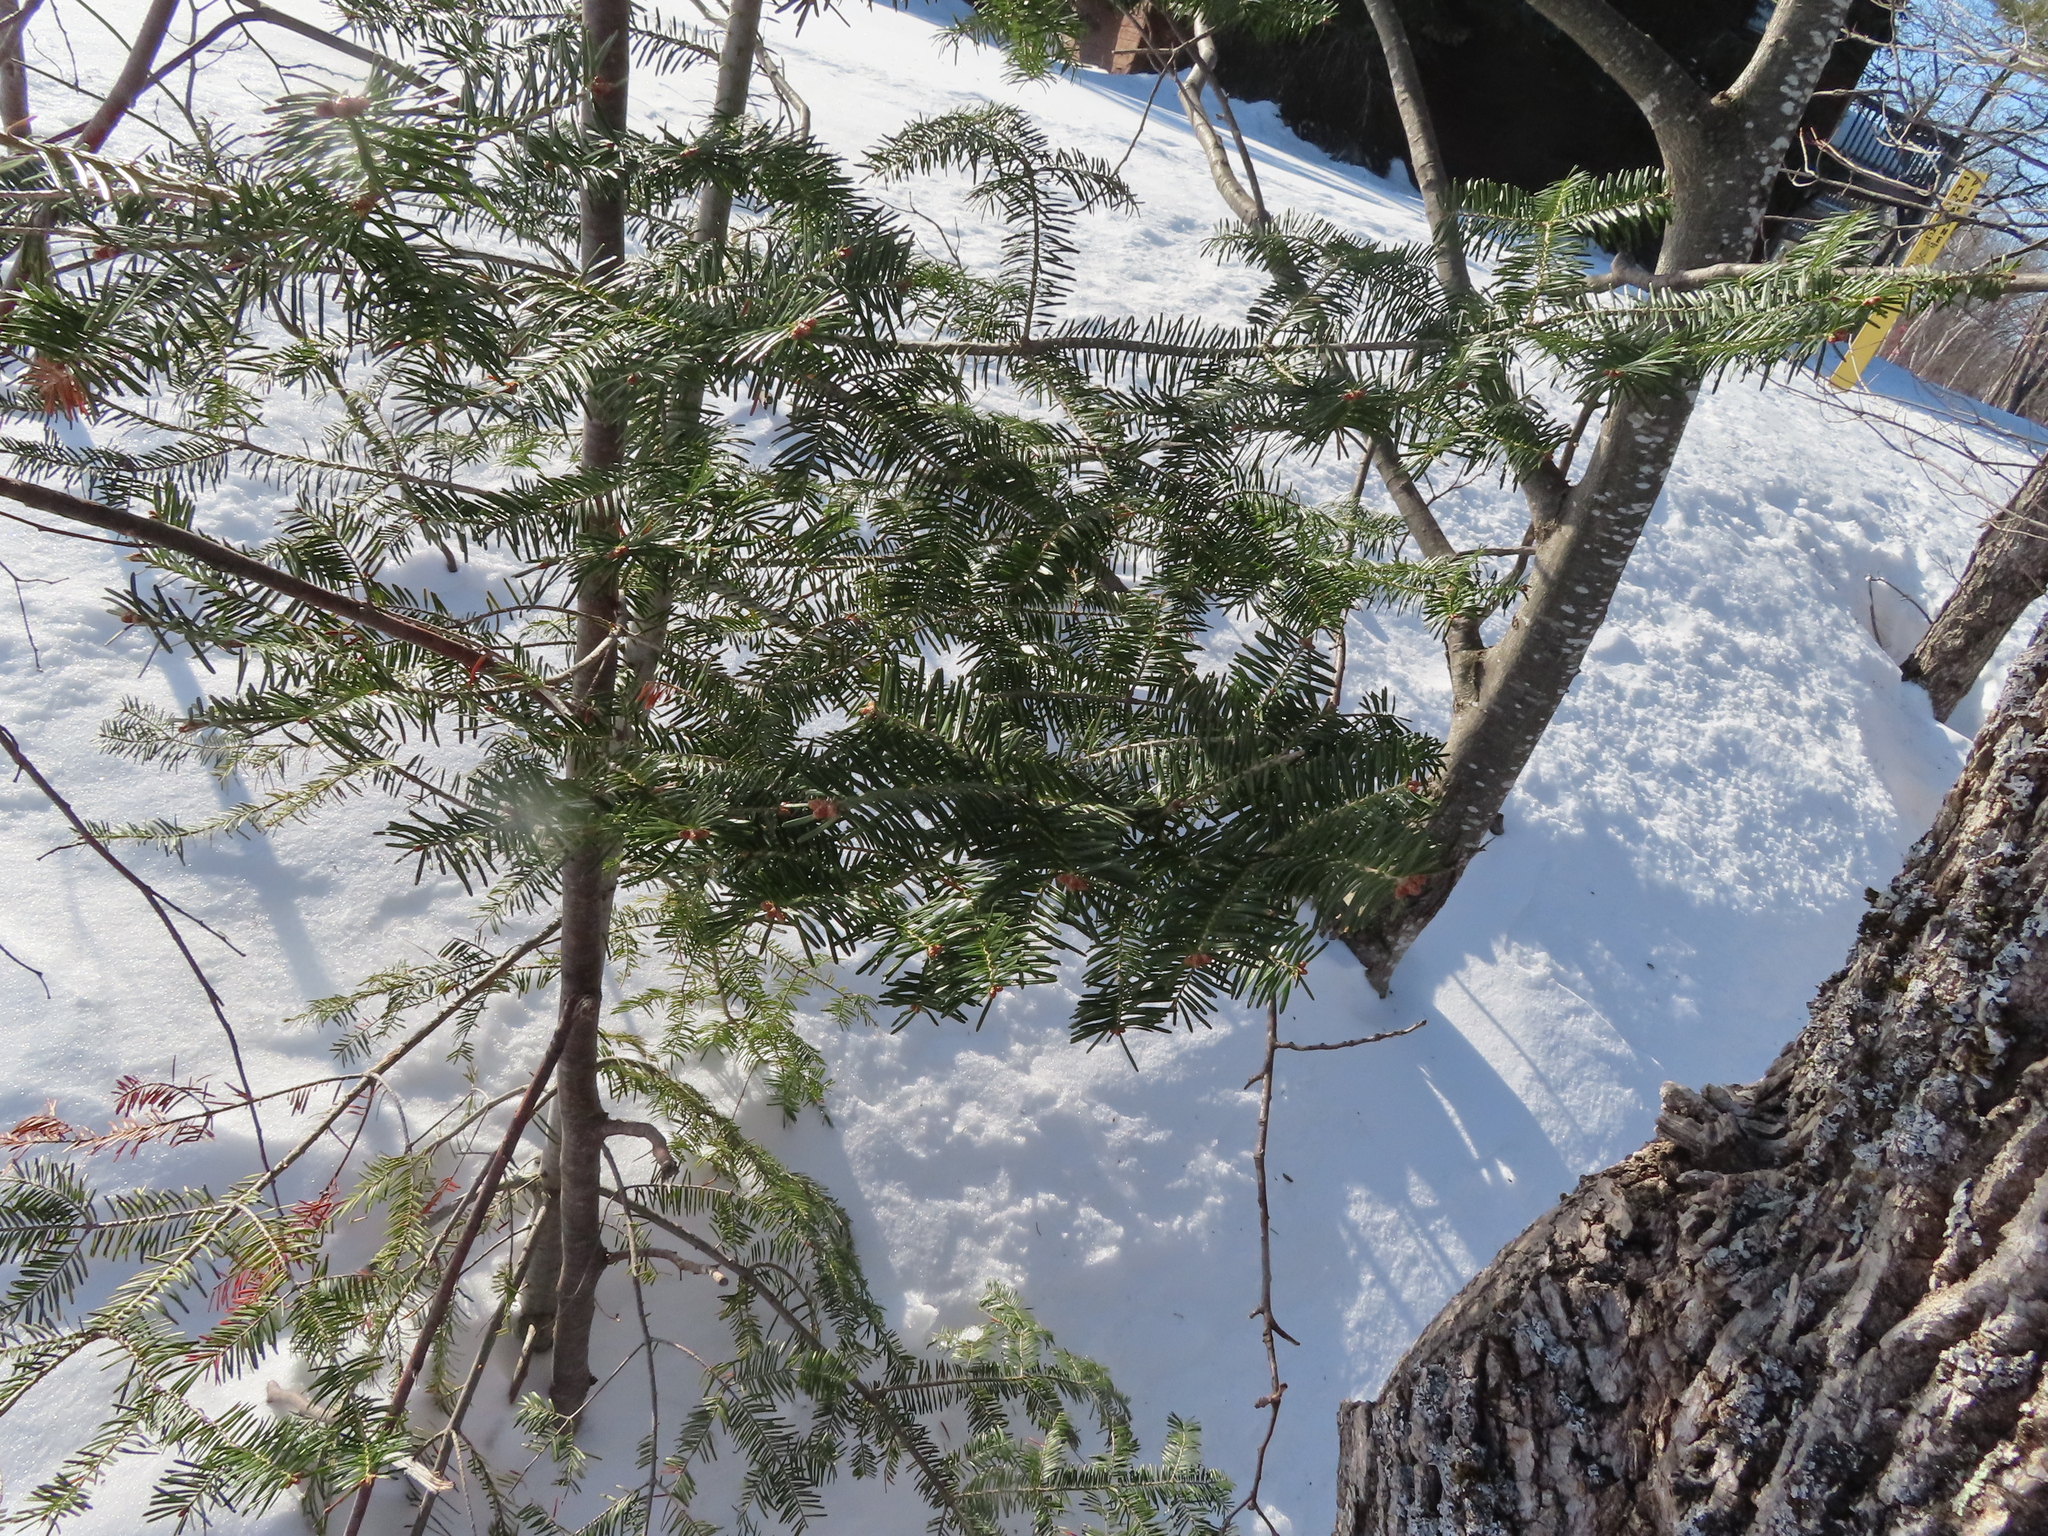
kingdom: Plantae
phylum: Tracheophyta
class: Pinopsida
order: Pinales
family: Pinaceae
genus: Abies
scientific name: Abies balsamea
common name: Balsam fir
